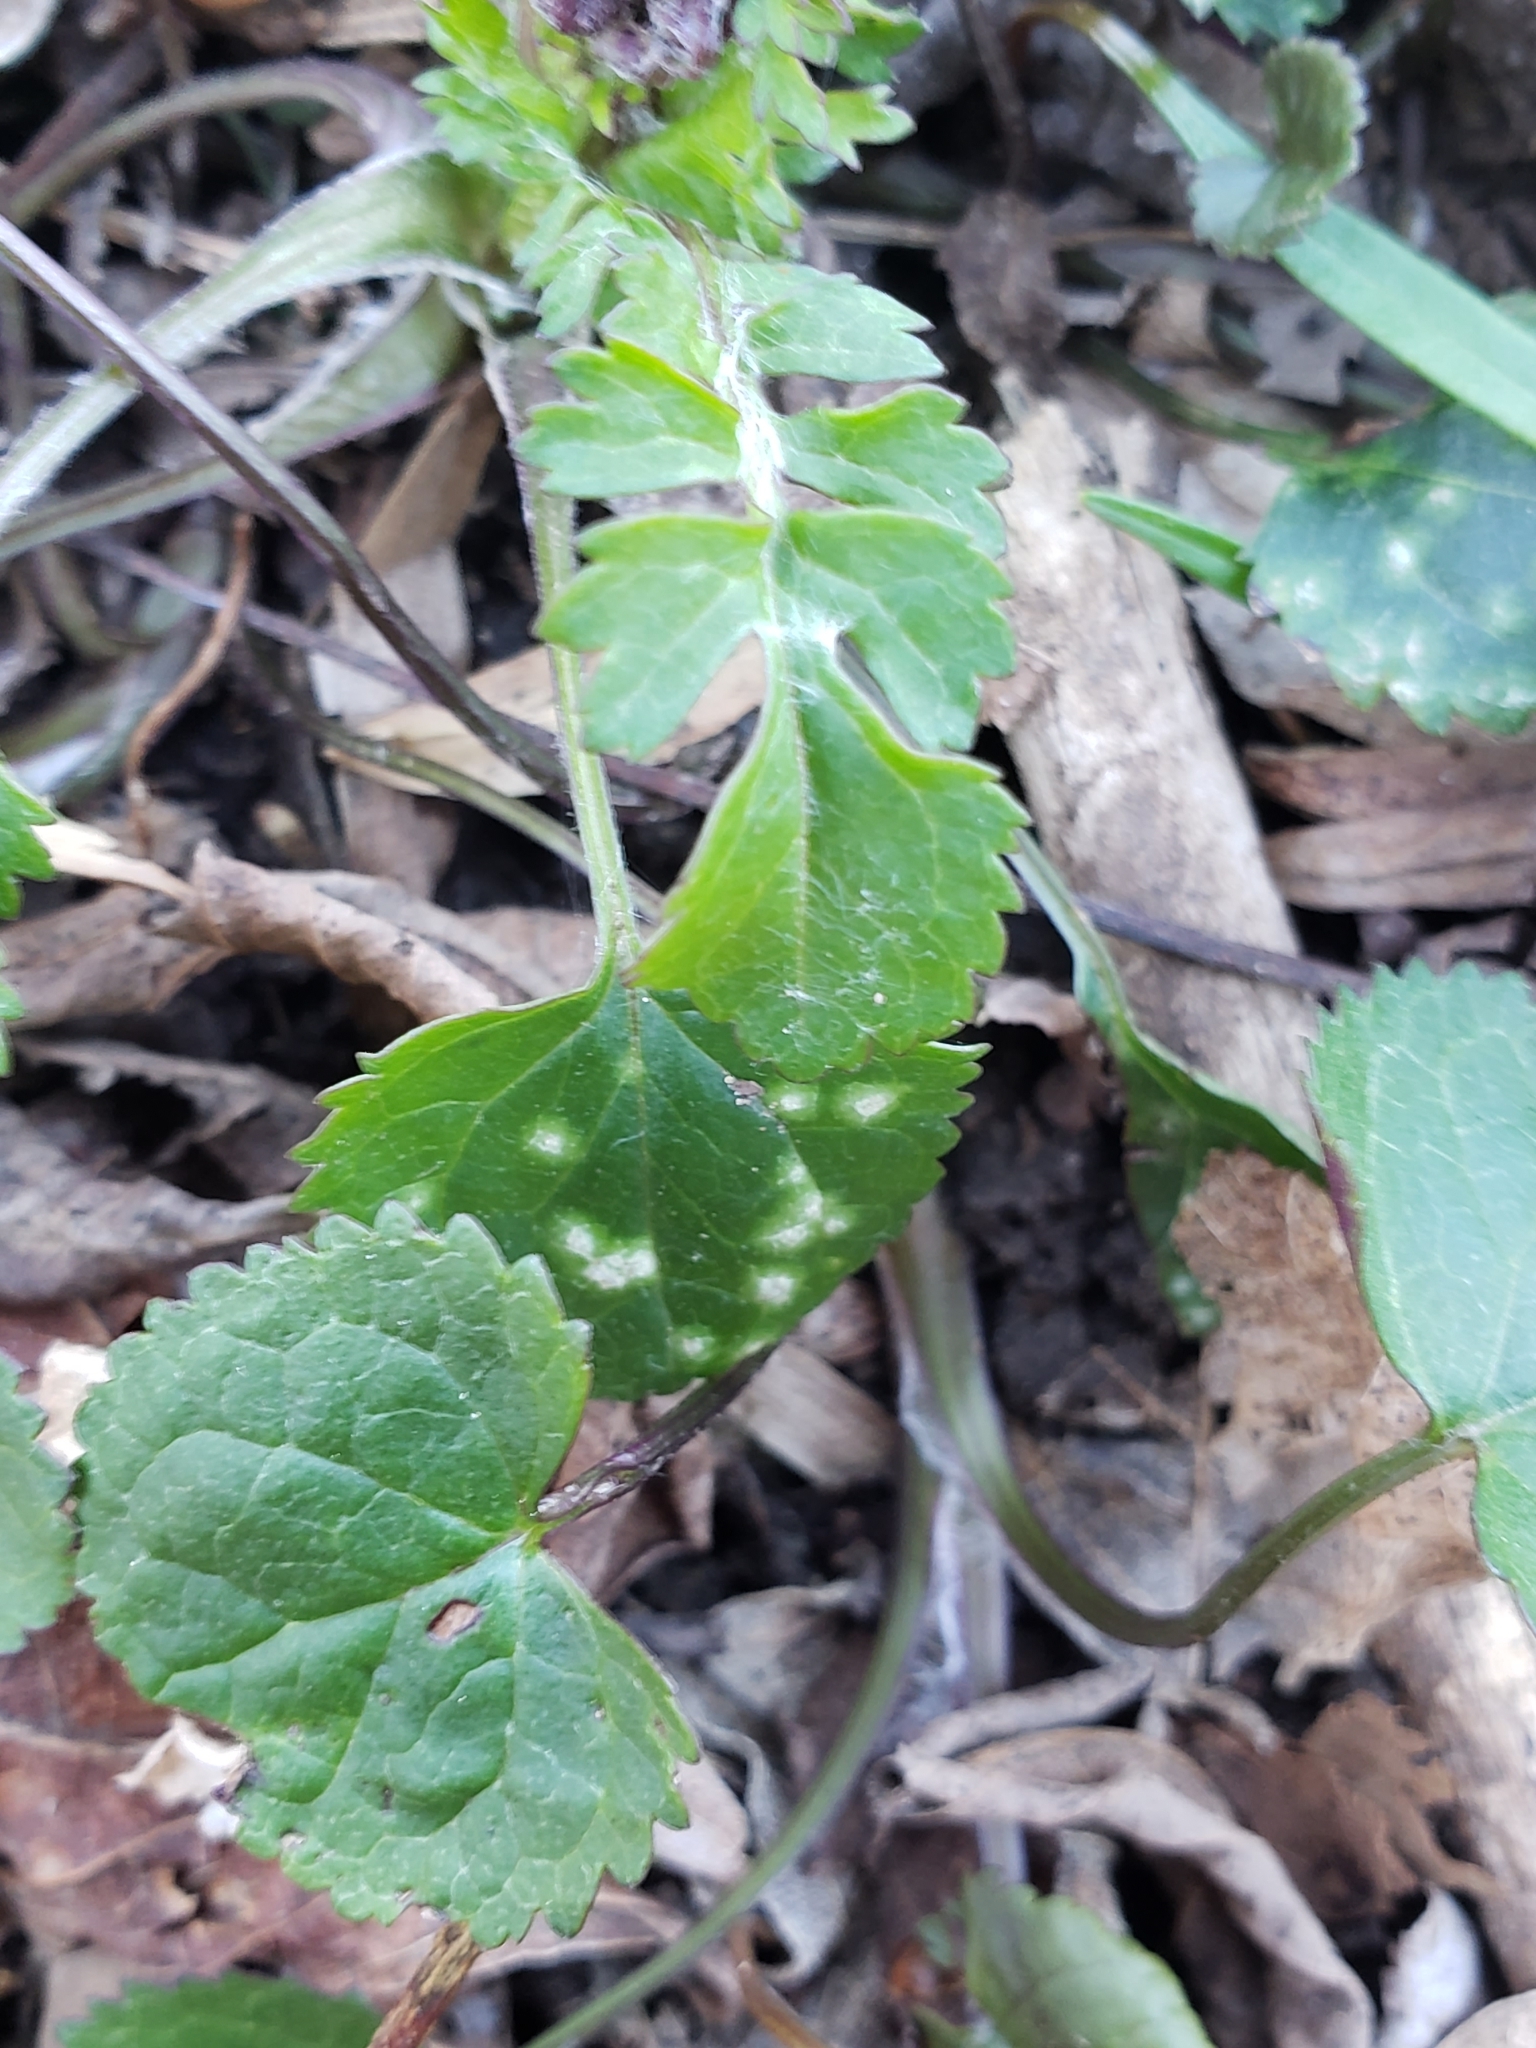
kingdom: Plantae
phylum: Tracheophyta
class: Magnoliopsida
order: Asterales
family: Asteraceae
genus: Packera
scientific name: Packera aurea
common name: Golden groundsel
